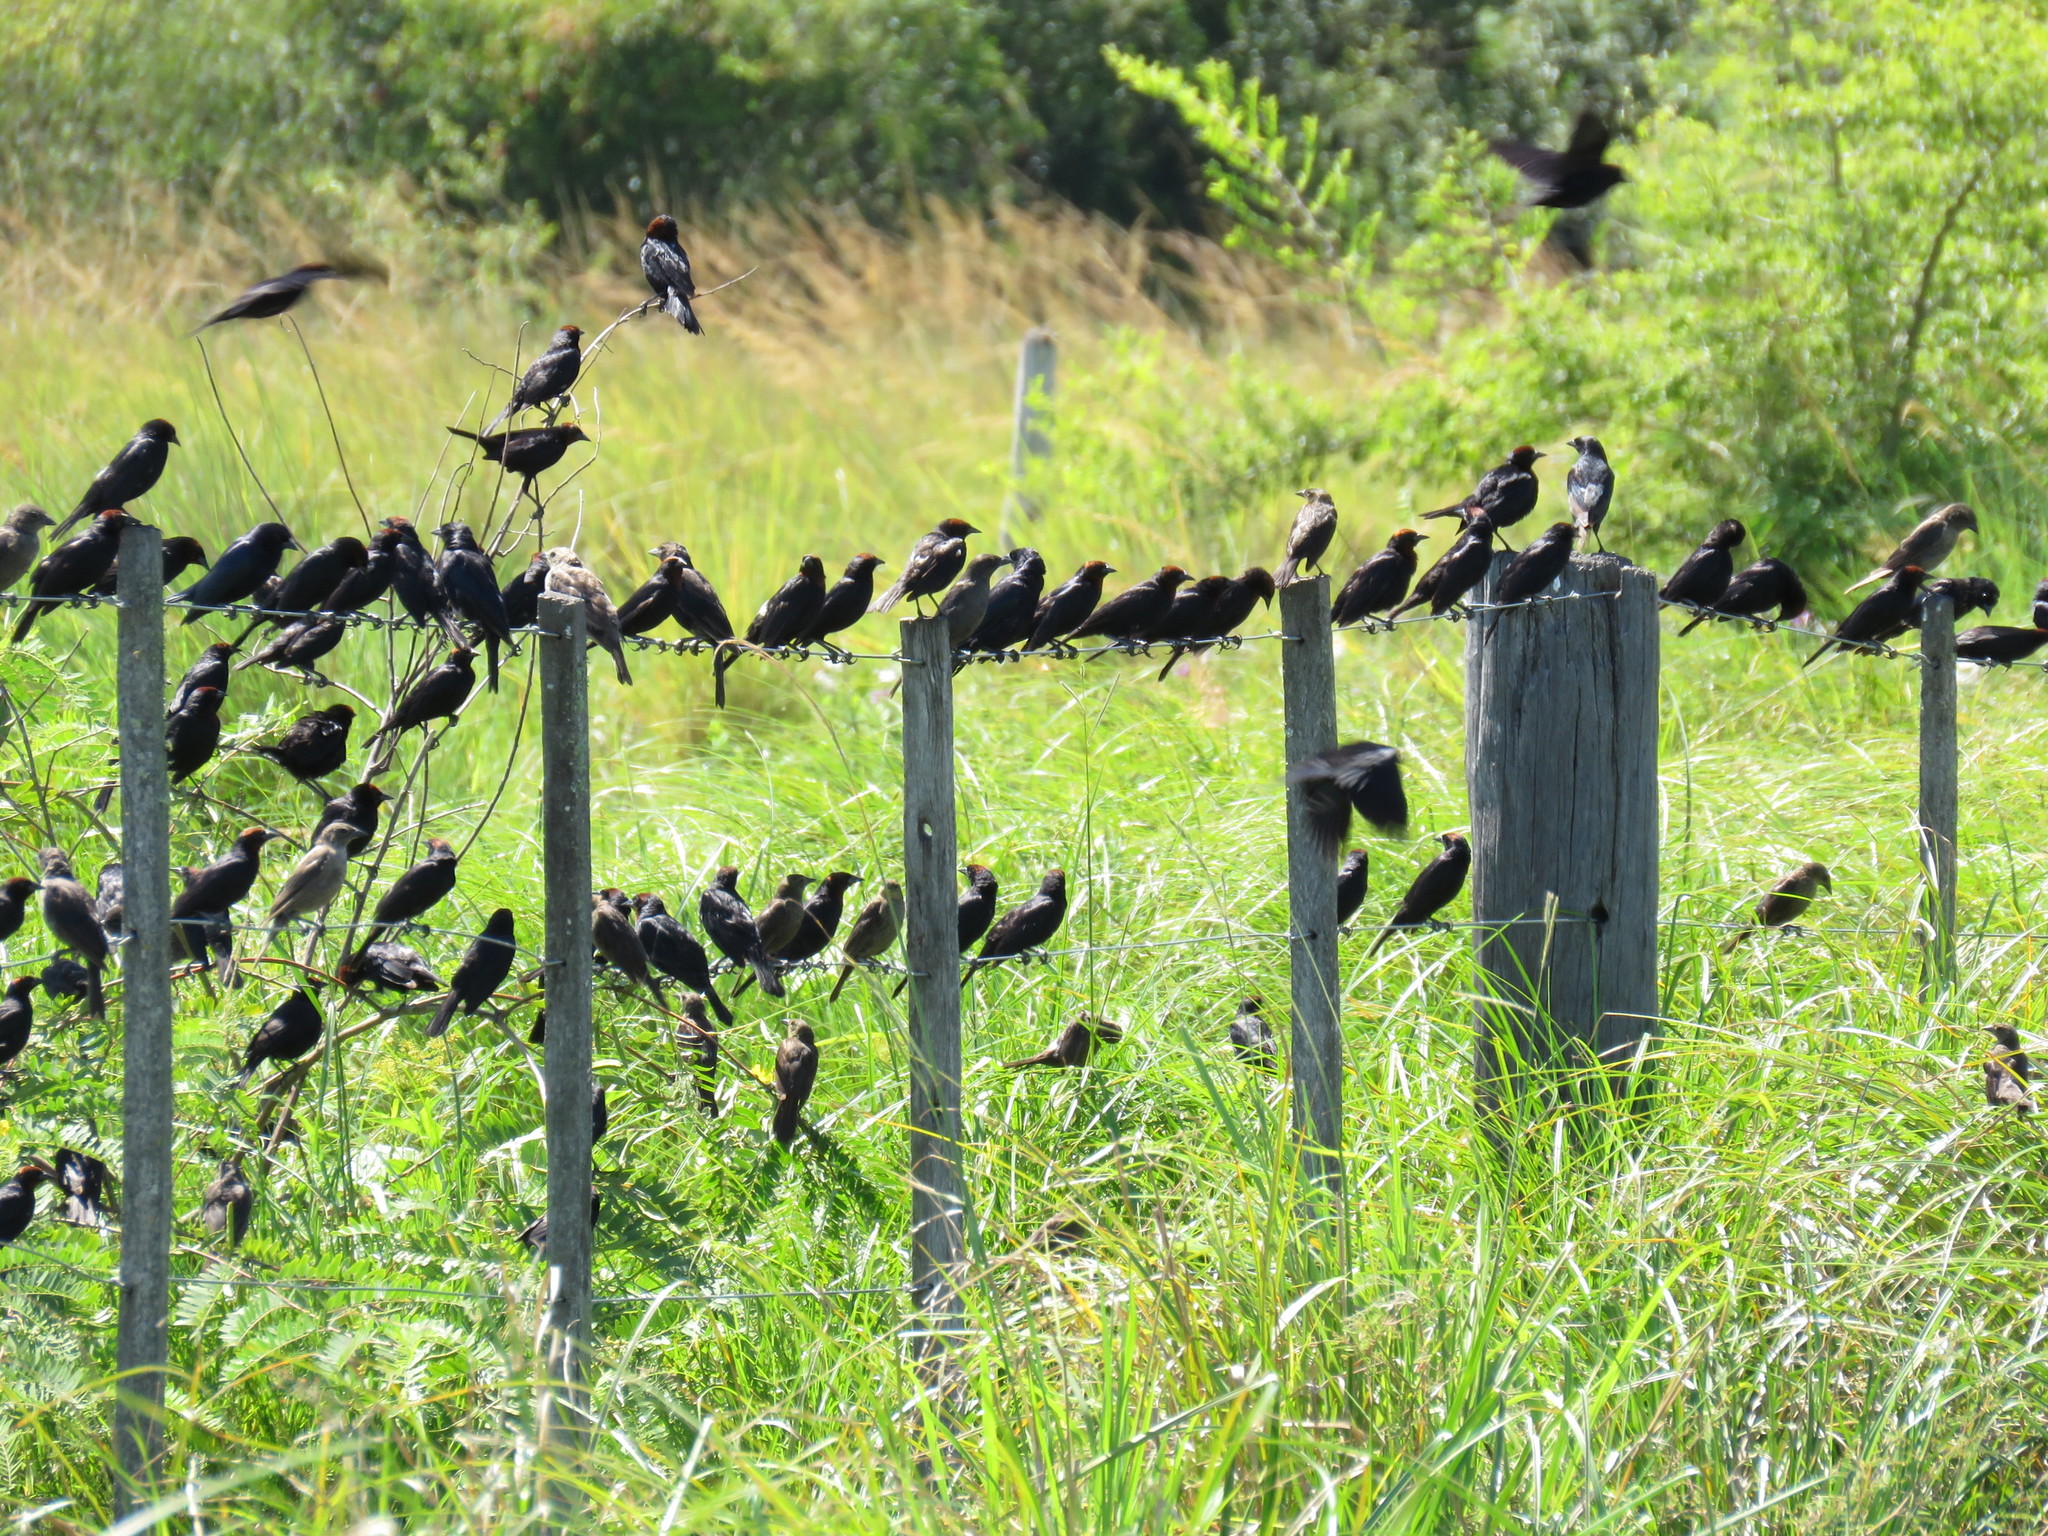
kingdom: Animalia
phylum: Chordata
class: Aves
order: Passeriformes
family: Icteridae
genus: Chrysomus
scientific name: Chrysomus ruficapillus
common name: Chestnut-capped blackbird
